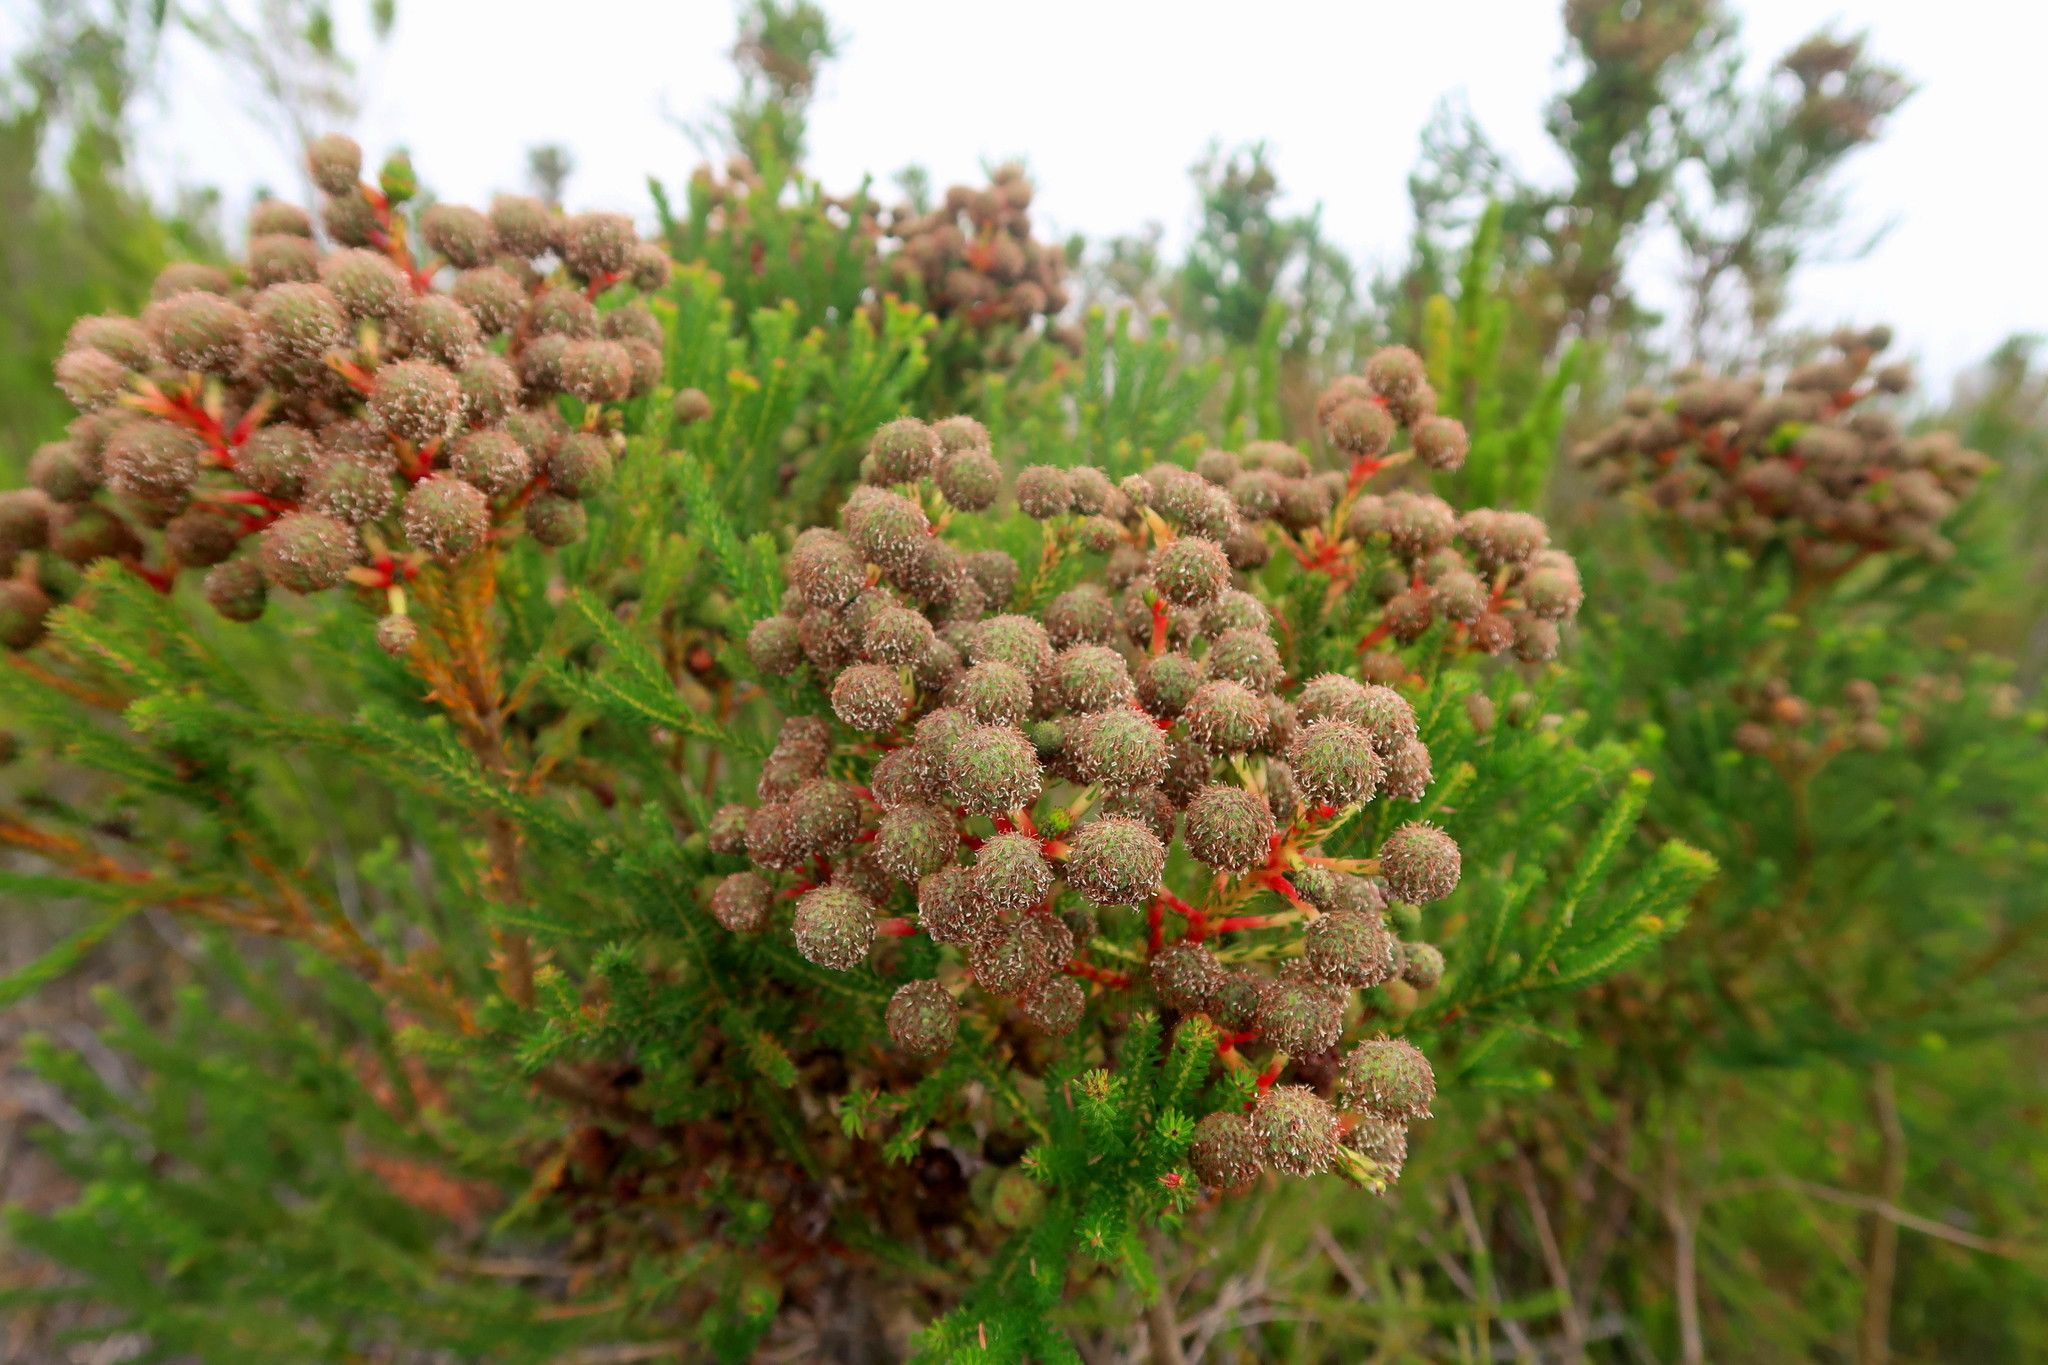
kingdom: Plantae
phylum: Tracheophyta
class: Magnoliopsida
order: Bruniales
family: Bruniaceae
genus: Berzelia
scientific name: Berzelia intermedia
